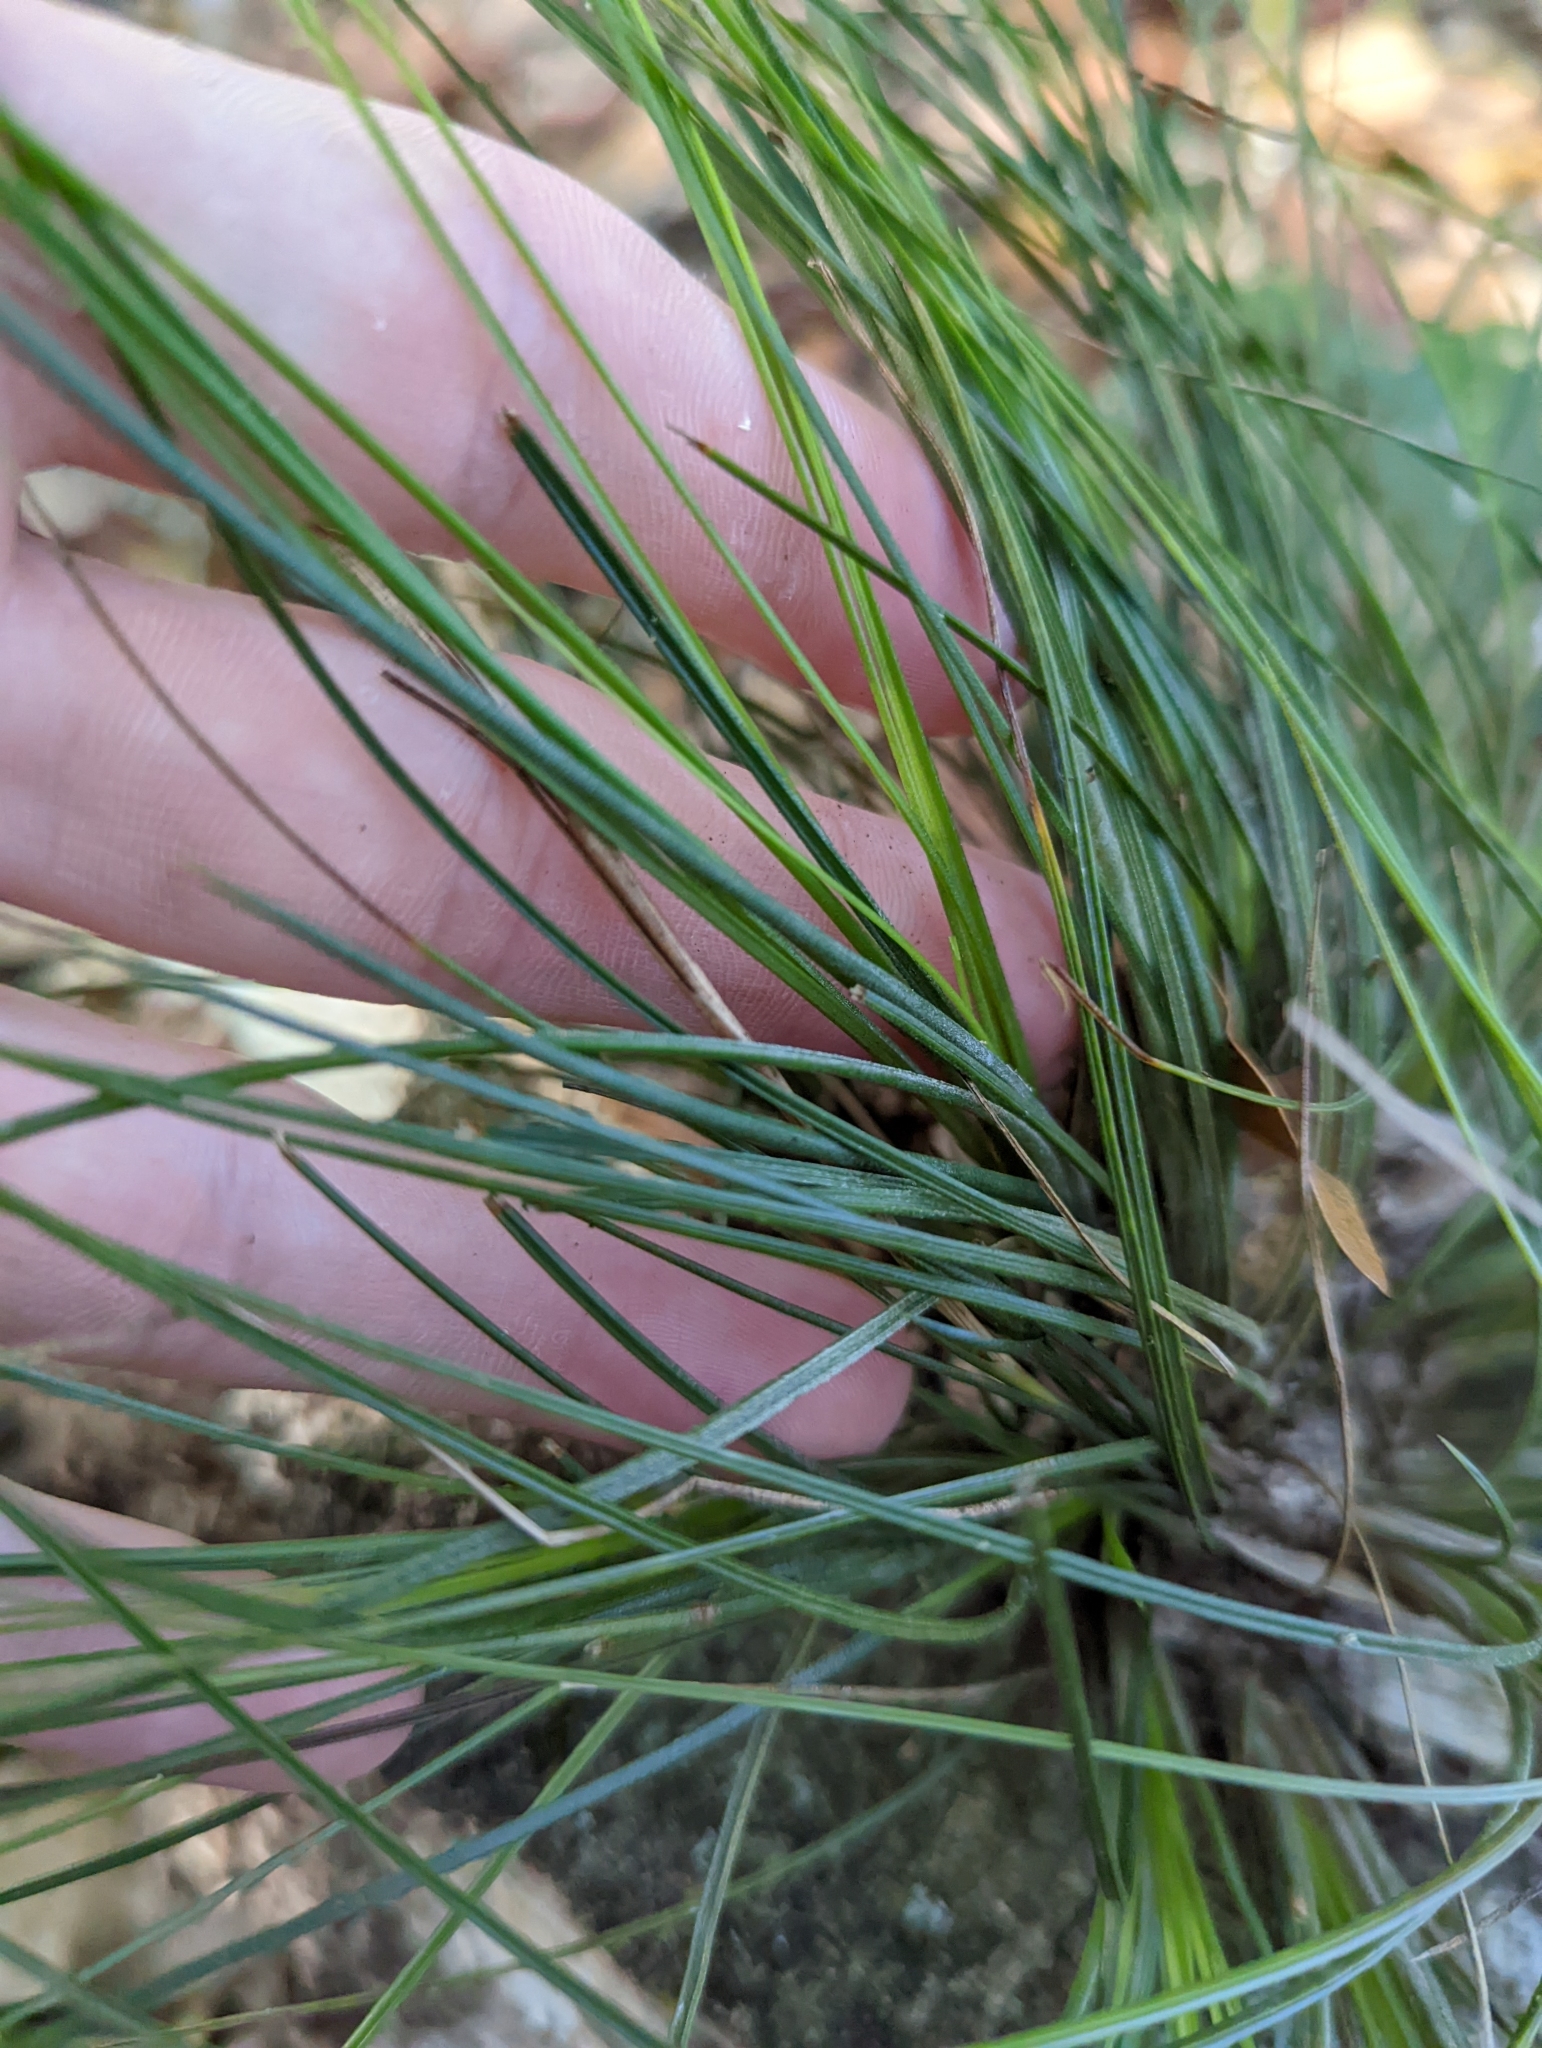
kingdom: Plantae
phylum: Tracheophyta
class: Liliopsida
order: Poales
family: Bromeliaceae
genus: Tillandsia
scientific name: Tillandsia setacea
